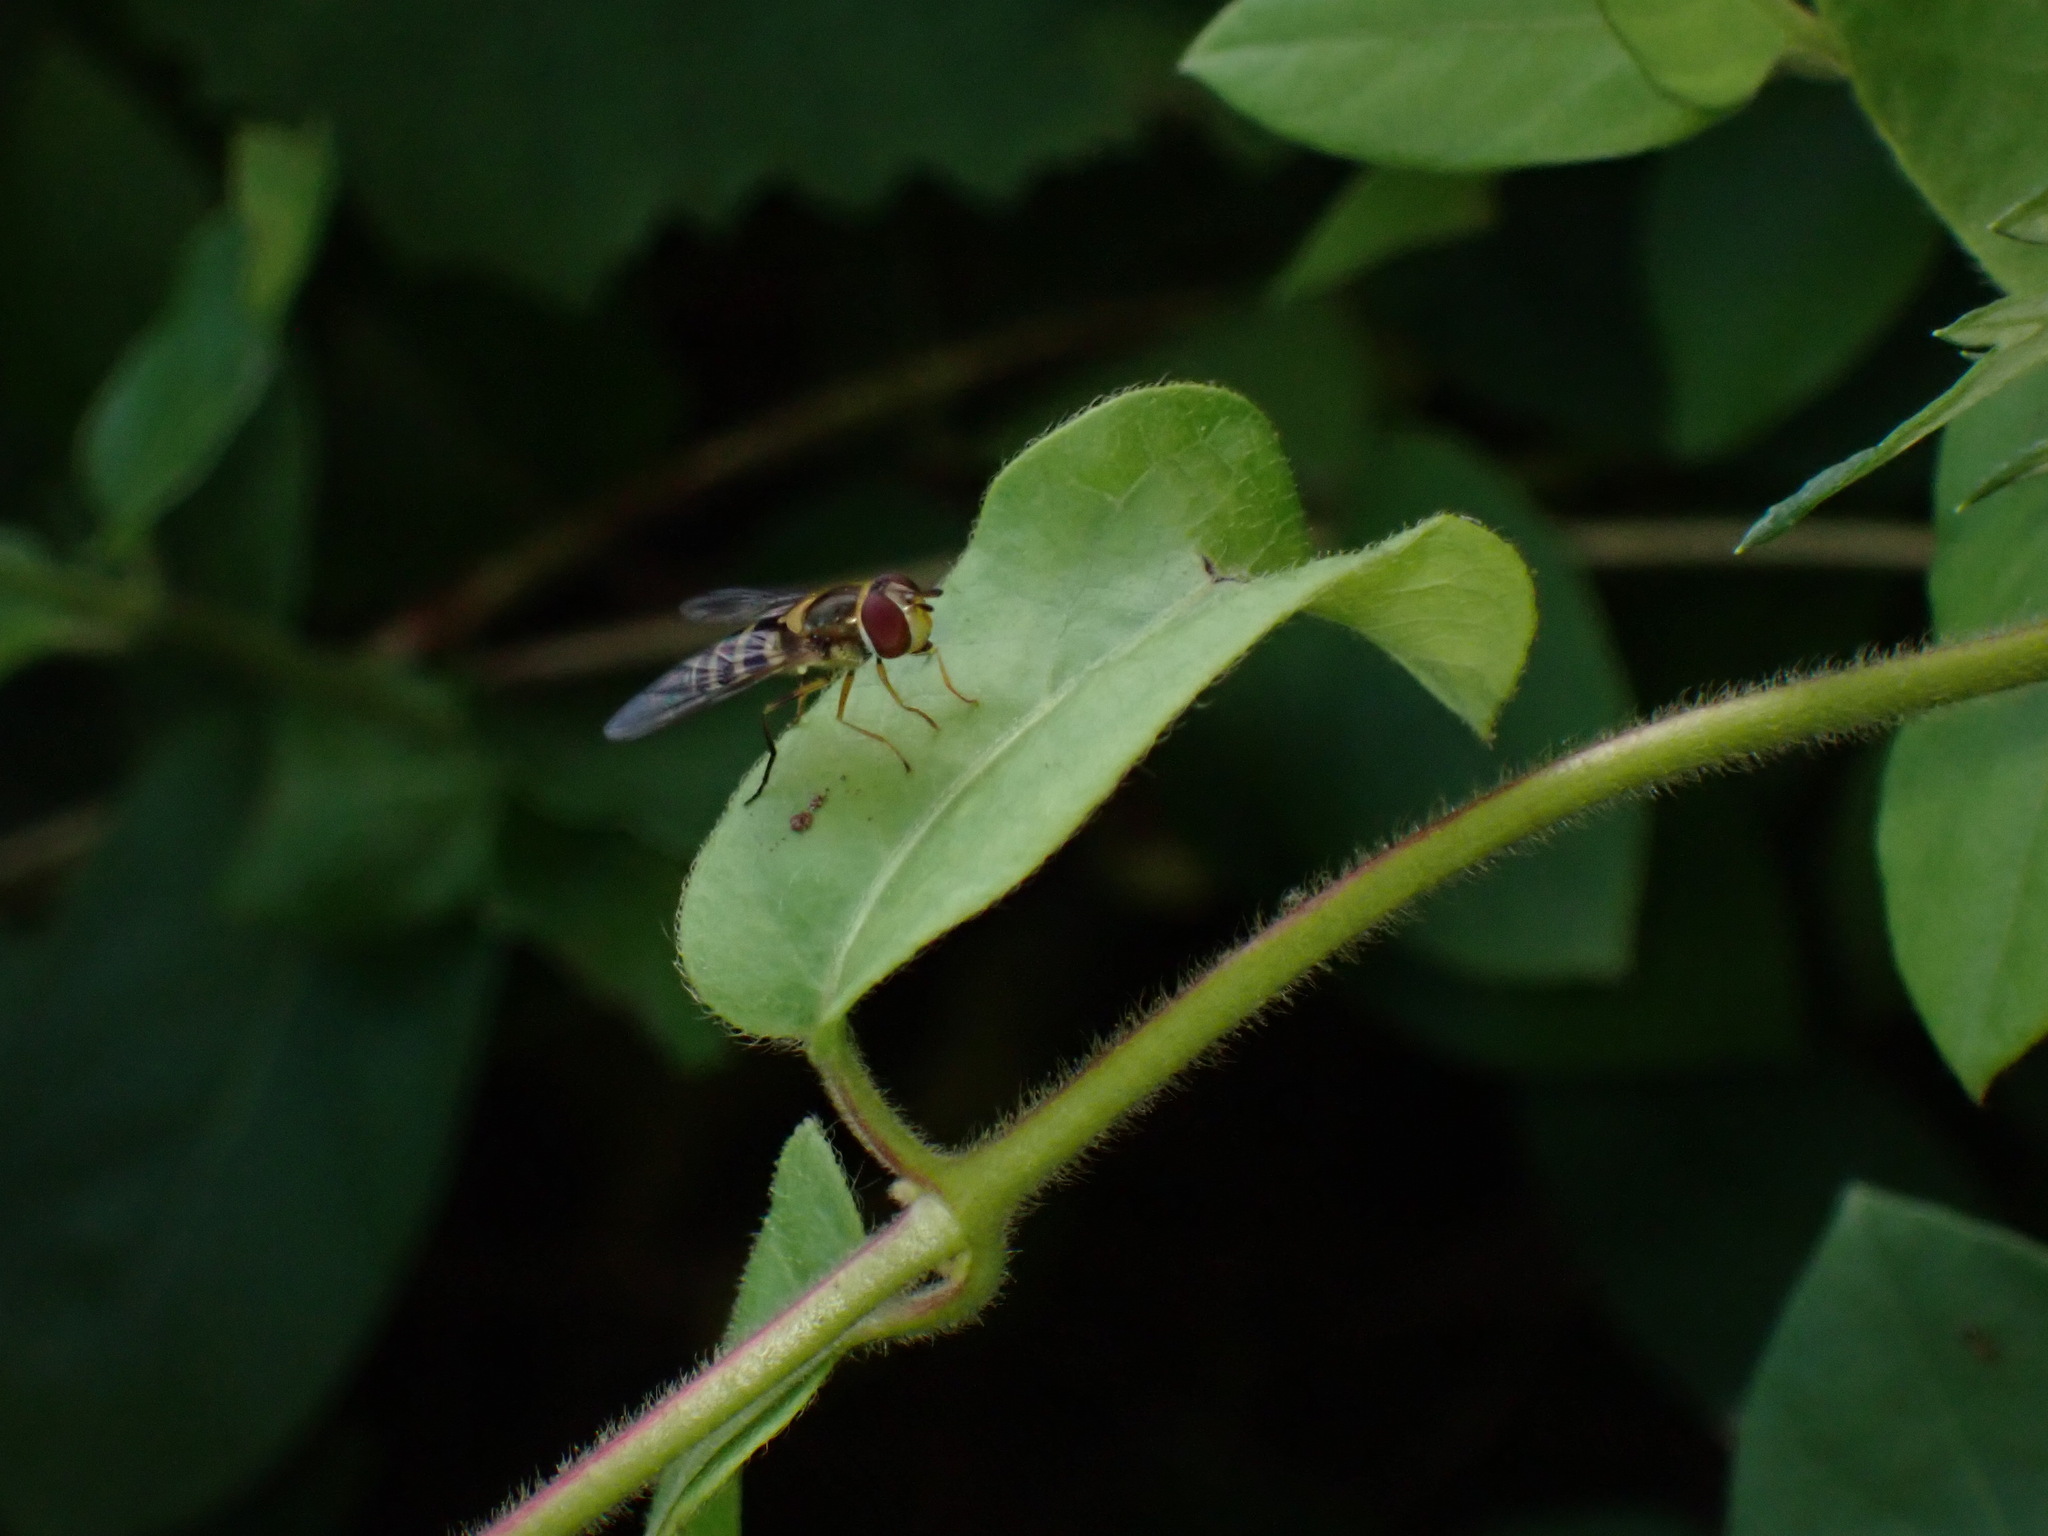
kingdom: Animalia
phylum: Arthropoda
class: Insecta
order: Diptera
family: Syrphidae
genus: Syrphus
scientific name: Syrphus rectus
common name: Yellow-legged flower fly
